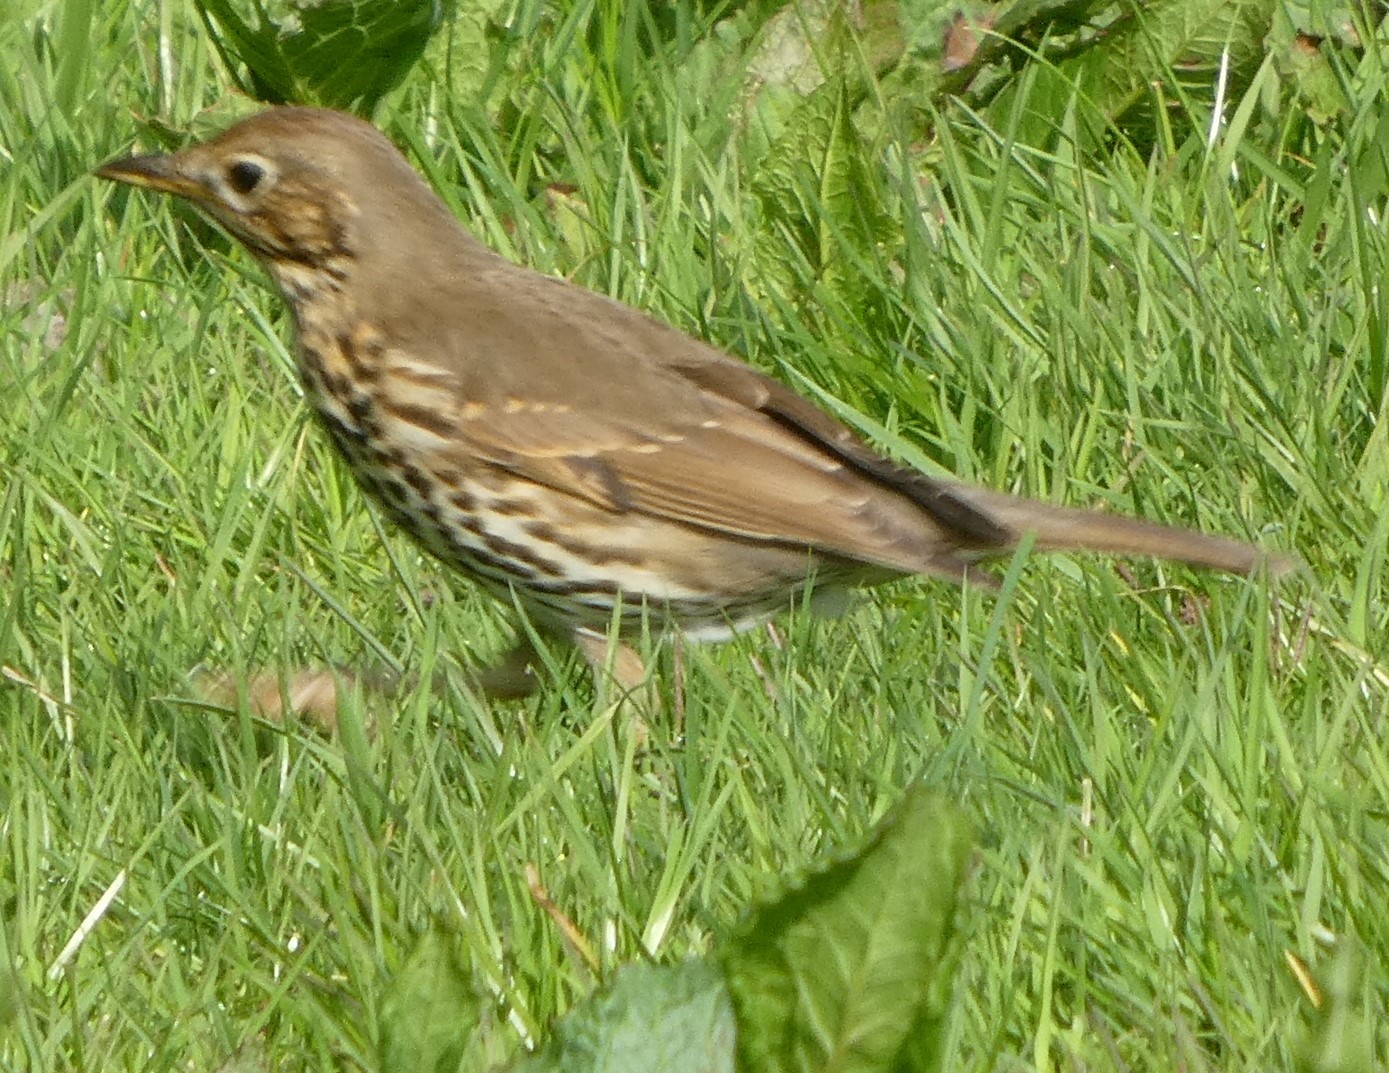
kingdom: Animalia
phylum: Chordata
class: Aves
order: Passeriformes
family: Turdidae
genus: Turdus
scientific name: Turdus philomelos
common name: Song thrush
